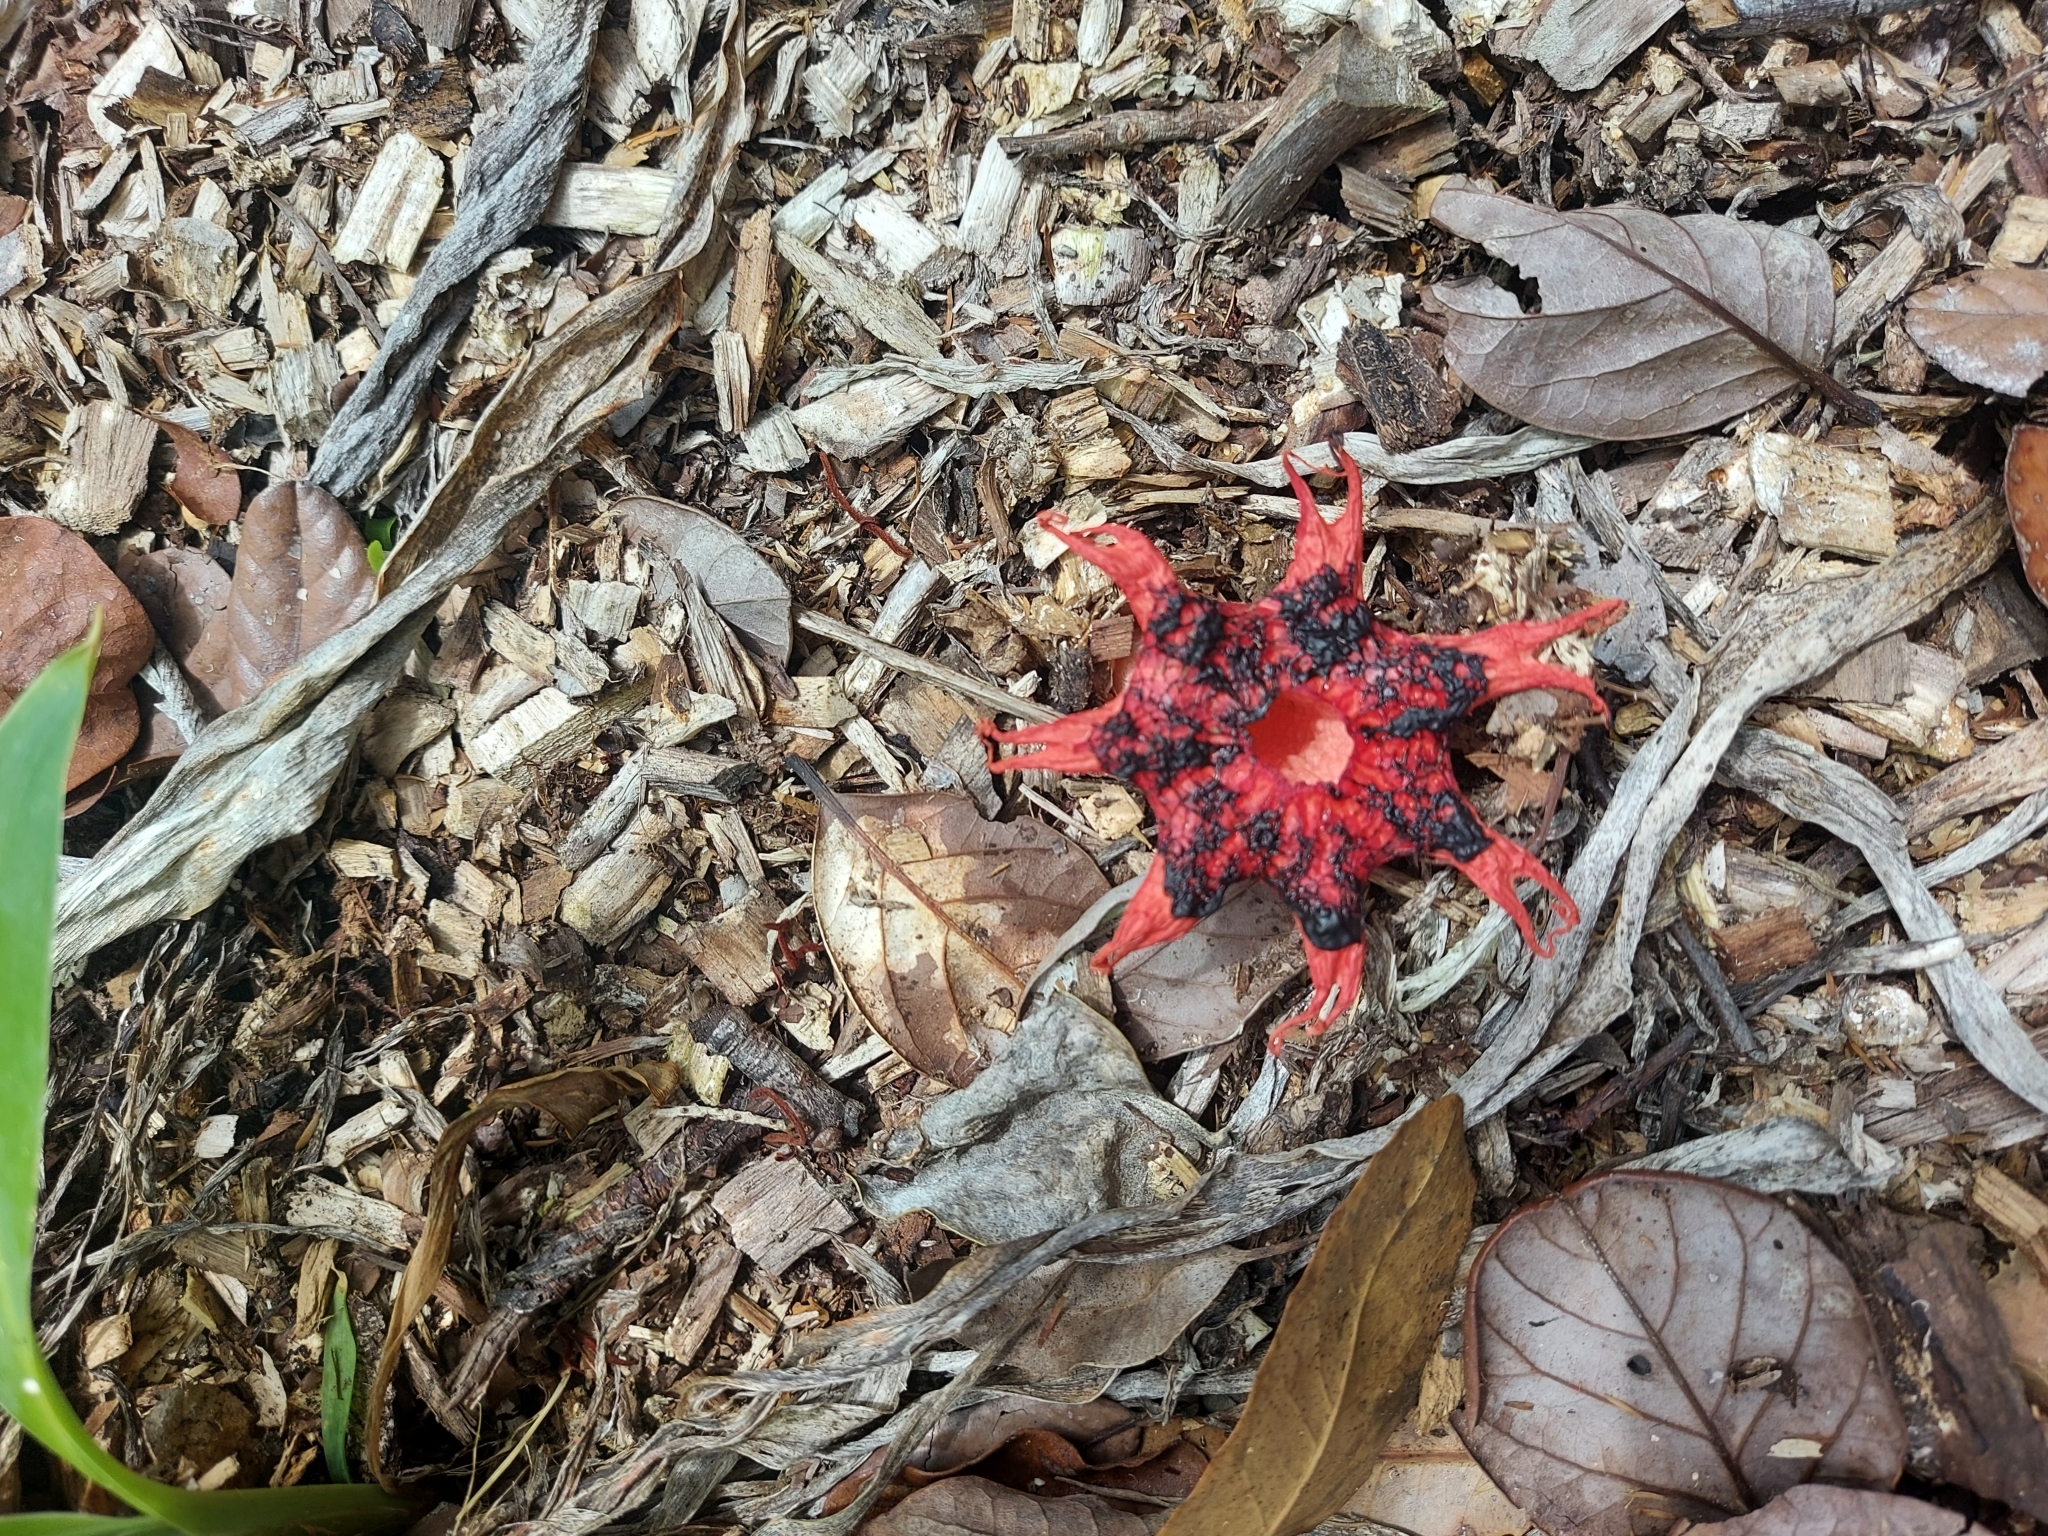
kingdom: Fungi
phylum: Basidiomycota
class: Agaricomycetes
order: Phallales
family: Phallaceae
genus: Aseroe
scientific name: Aseroe rubra
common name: Starfish fungus
